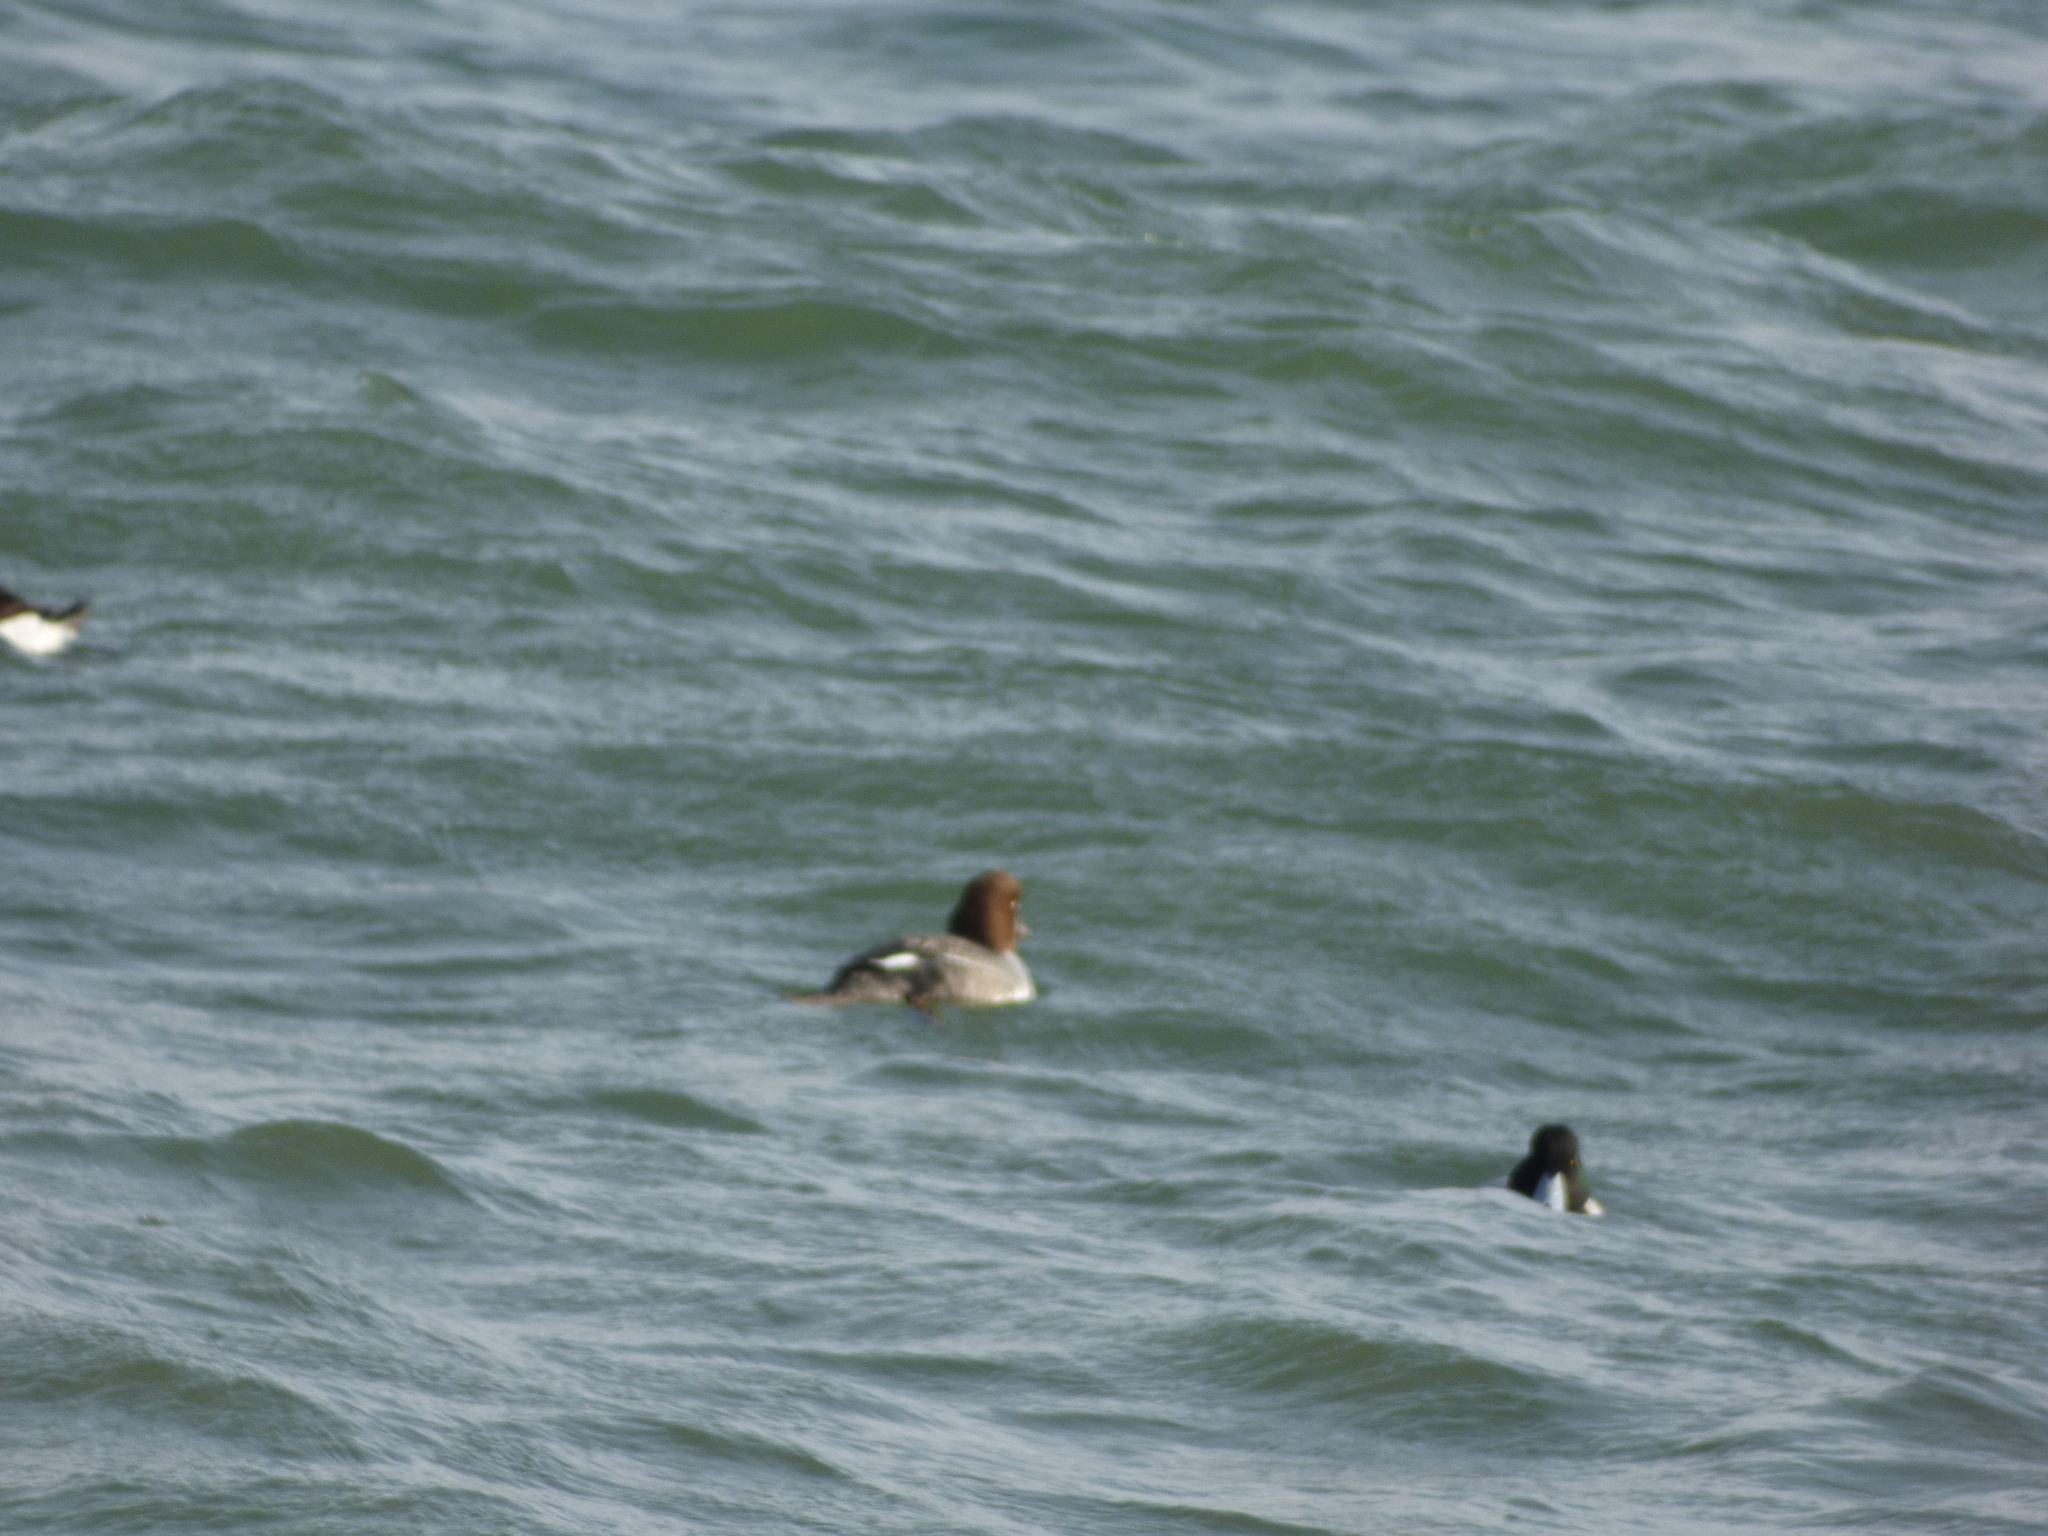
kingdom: Animalia
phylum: Chordata
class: Aves
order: Anseriformes
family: Anatidae
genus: Bucephala
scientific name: Bucephala clangula
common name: Common goldeneye
